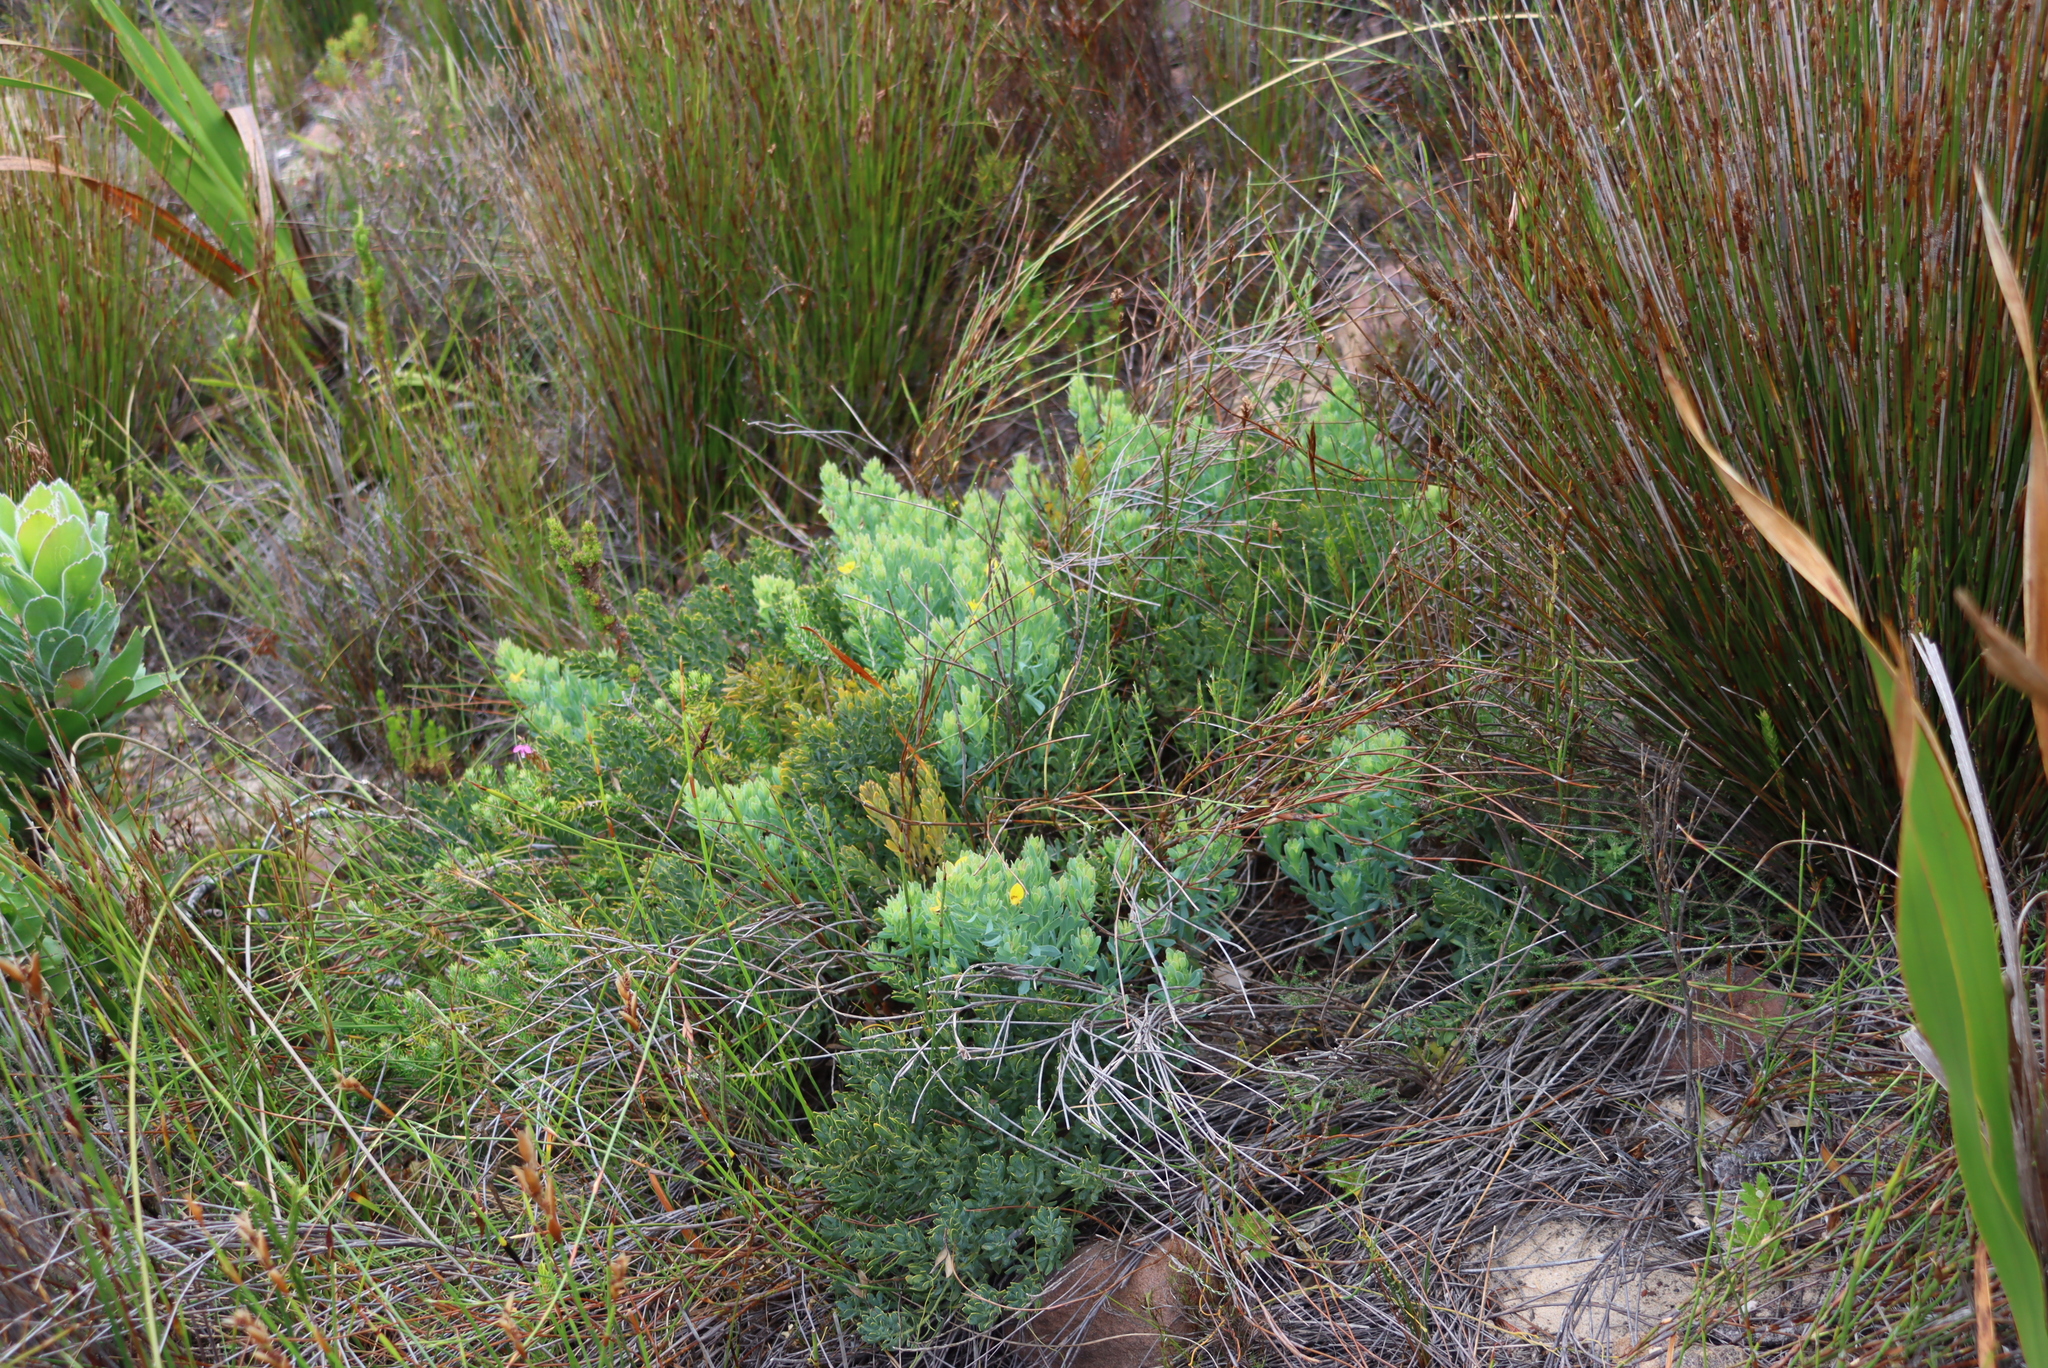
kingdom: Plantae
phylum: Tracheophyta
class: Magnoliopsida
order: Fabales
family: Fabaceae
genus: Rafnia
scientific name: Rafnia angulata
